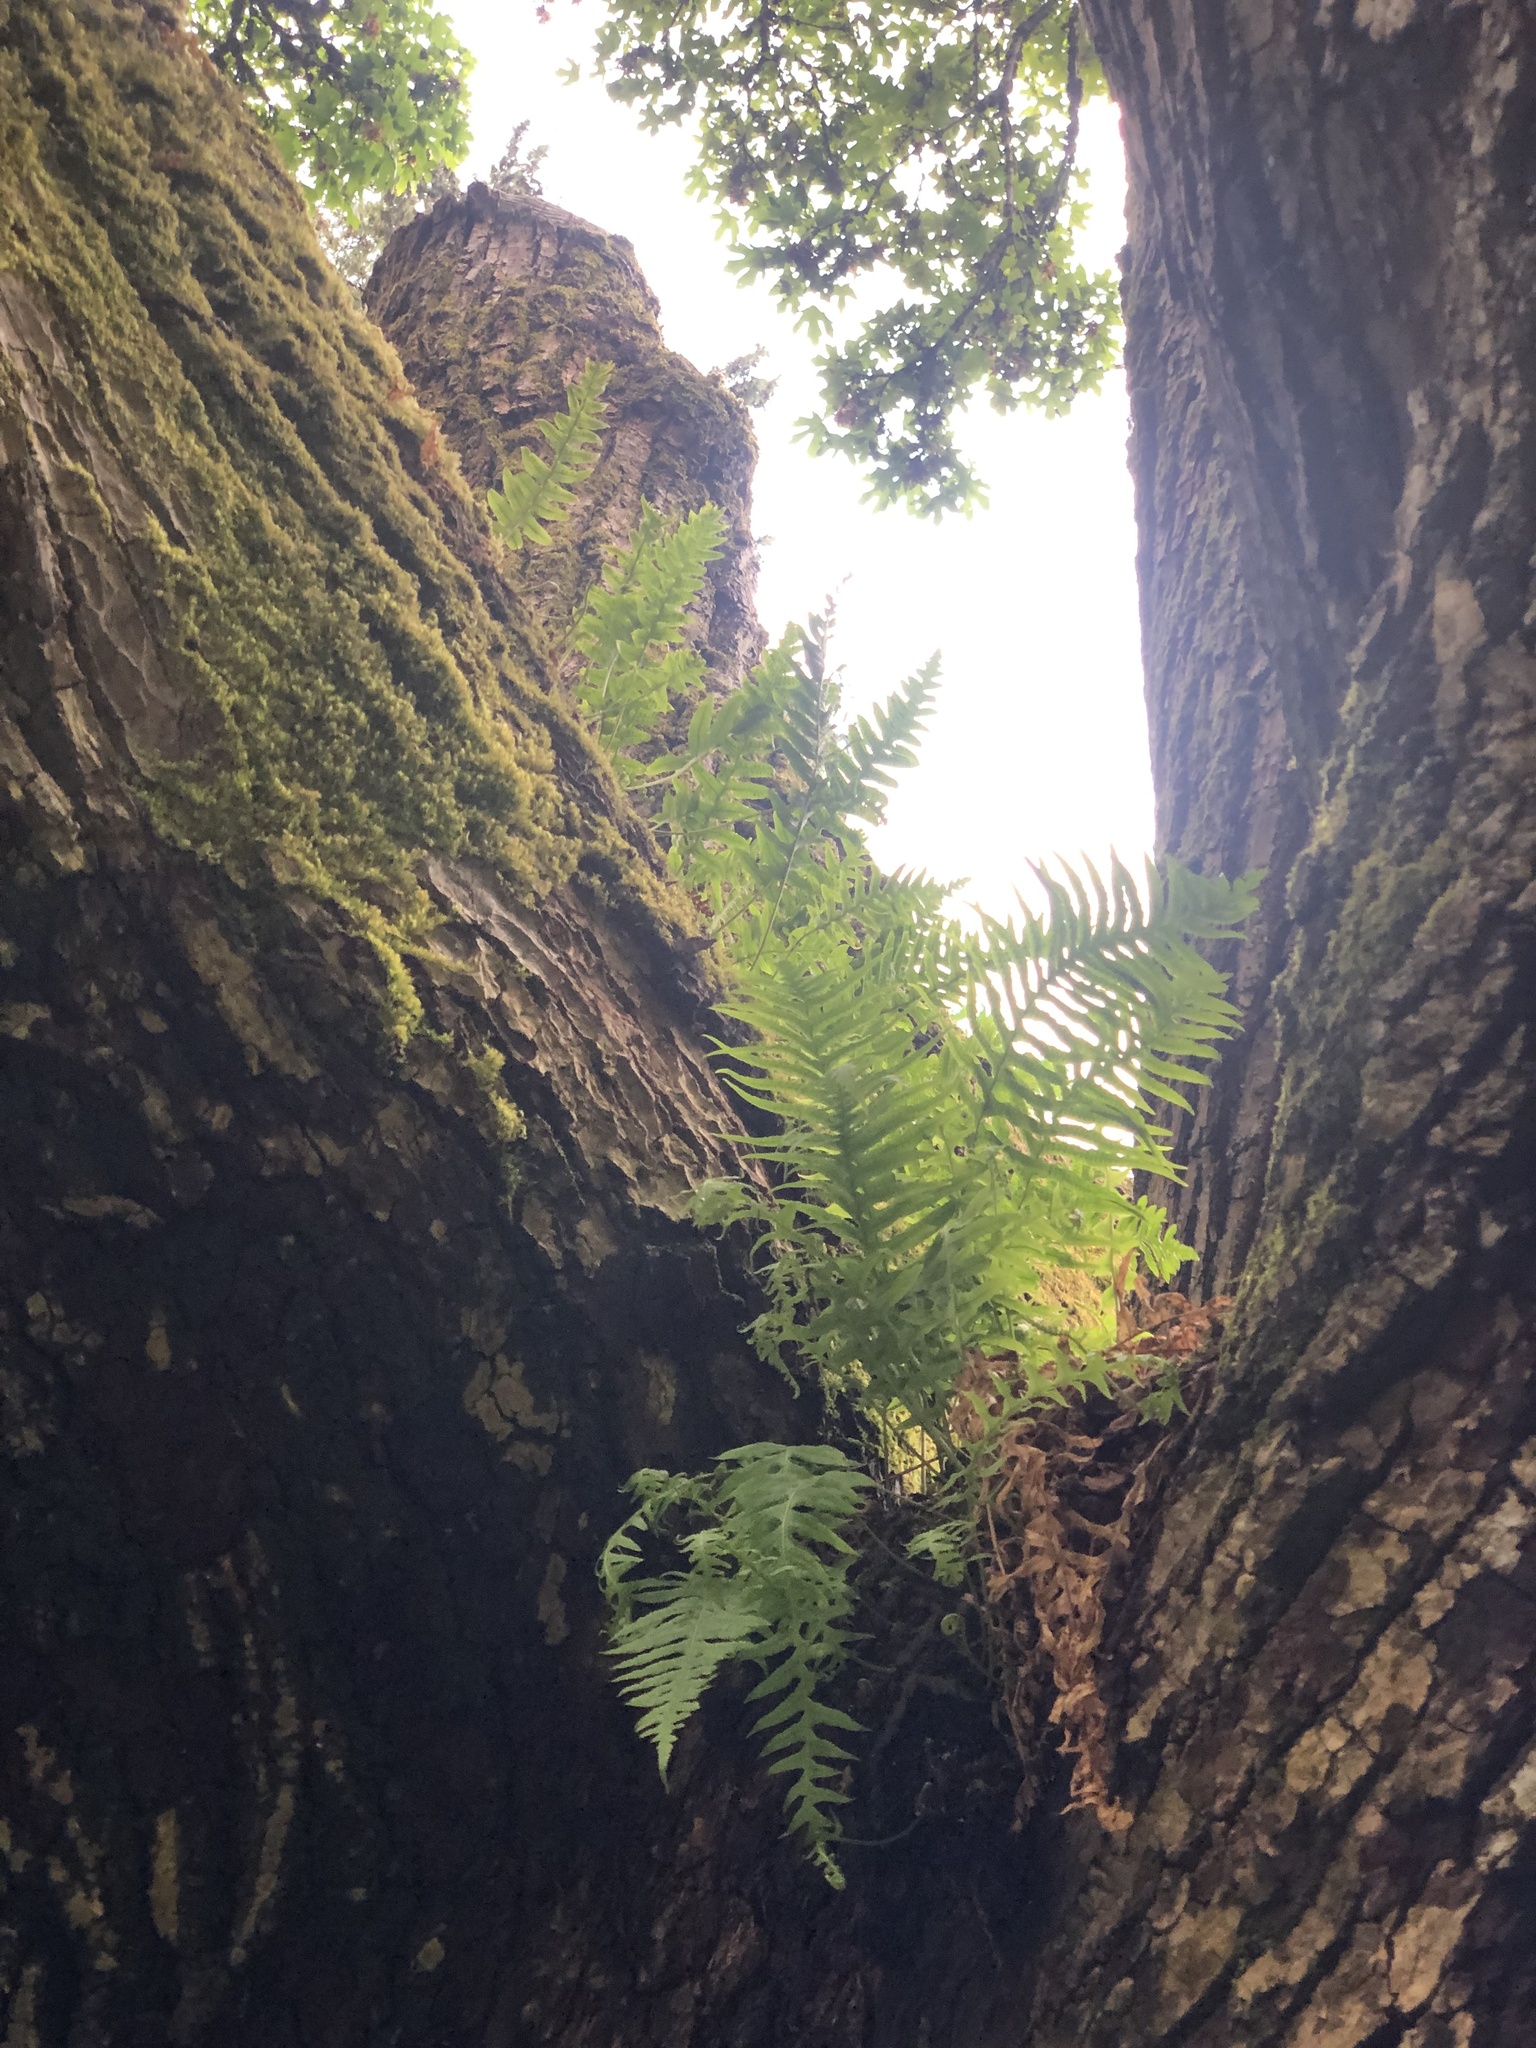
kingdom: Plantae
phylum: Tracheophyta
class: Polypodiopsida
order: Polypodiales
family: Polypodiaceae
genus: Polypodium
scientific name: Polypodium glycyrrhiza
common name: Licorice fern
